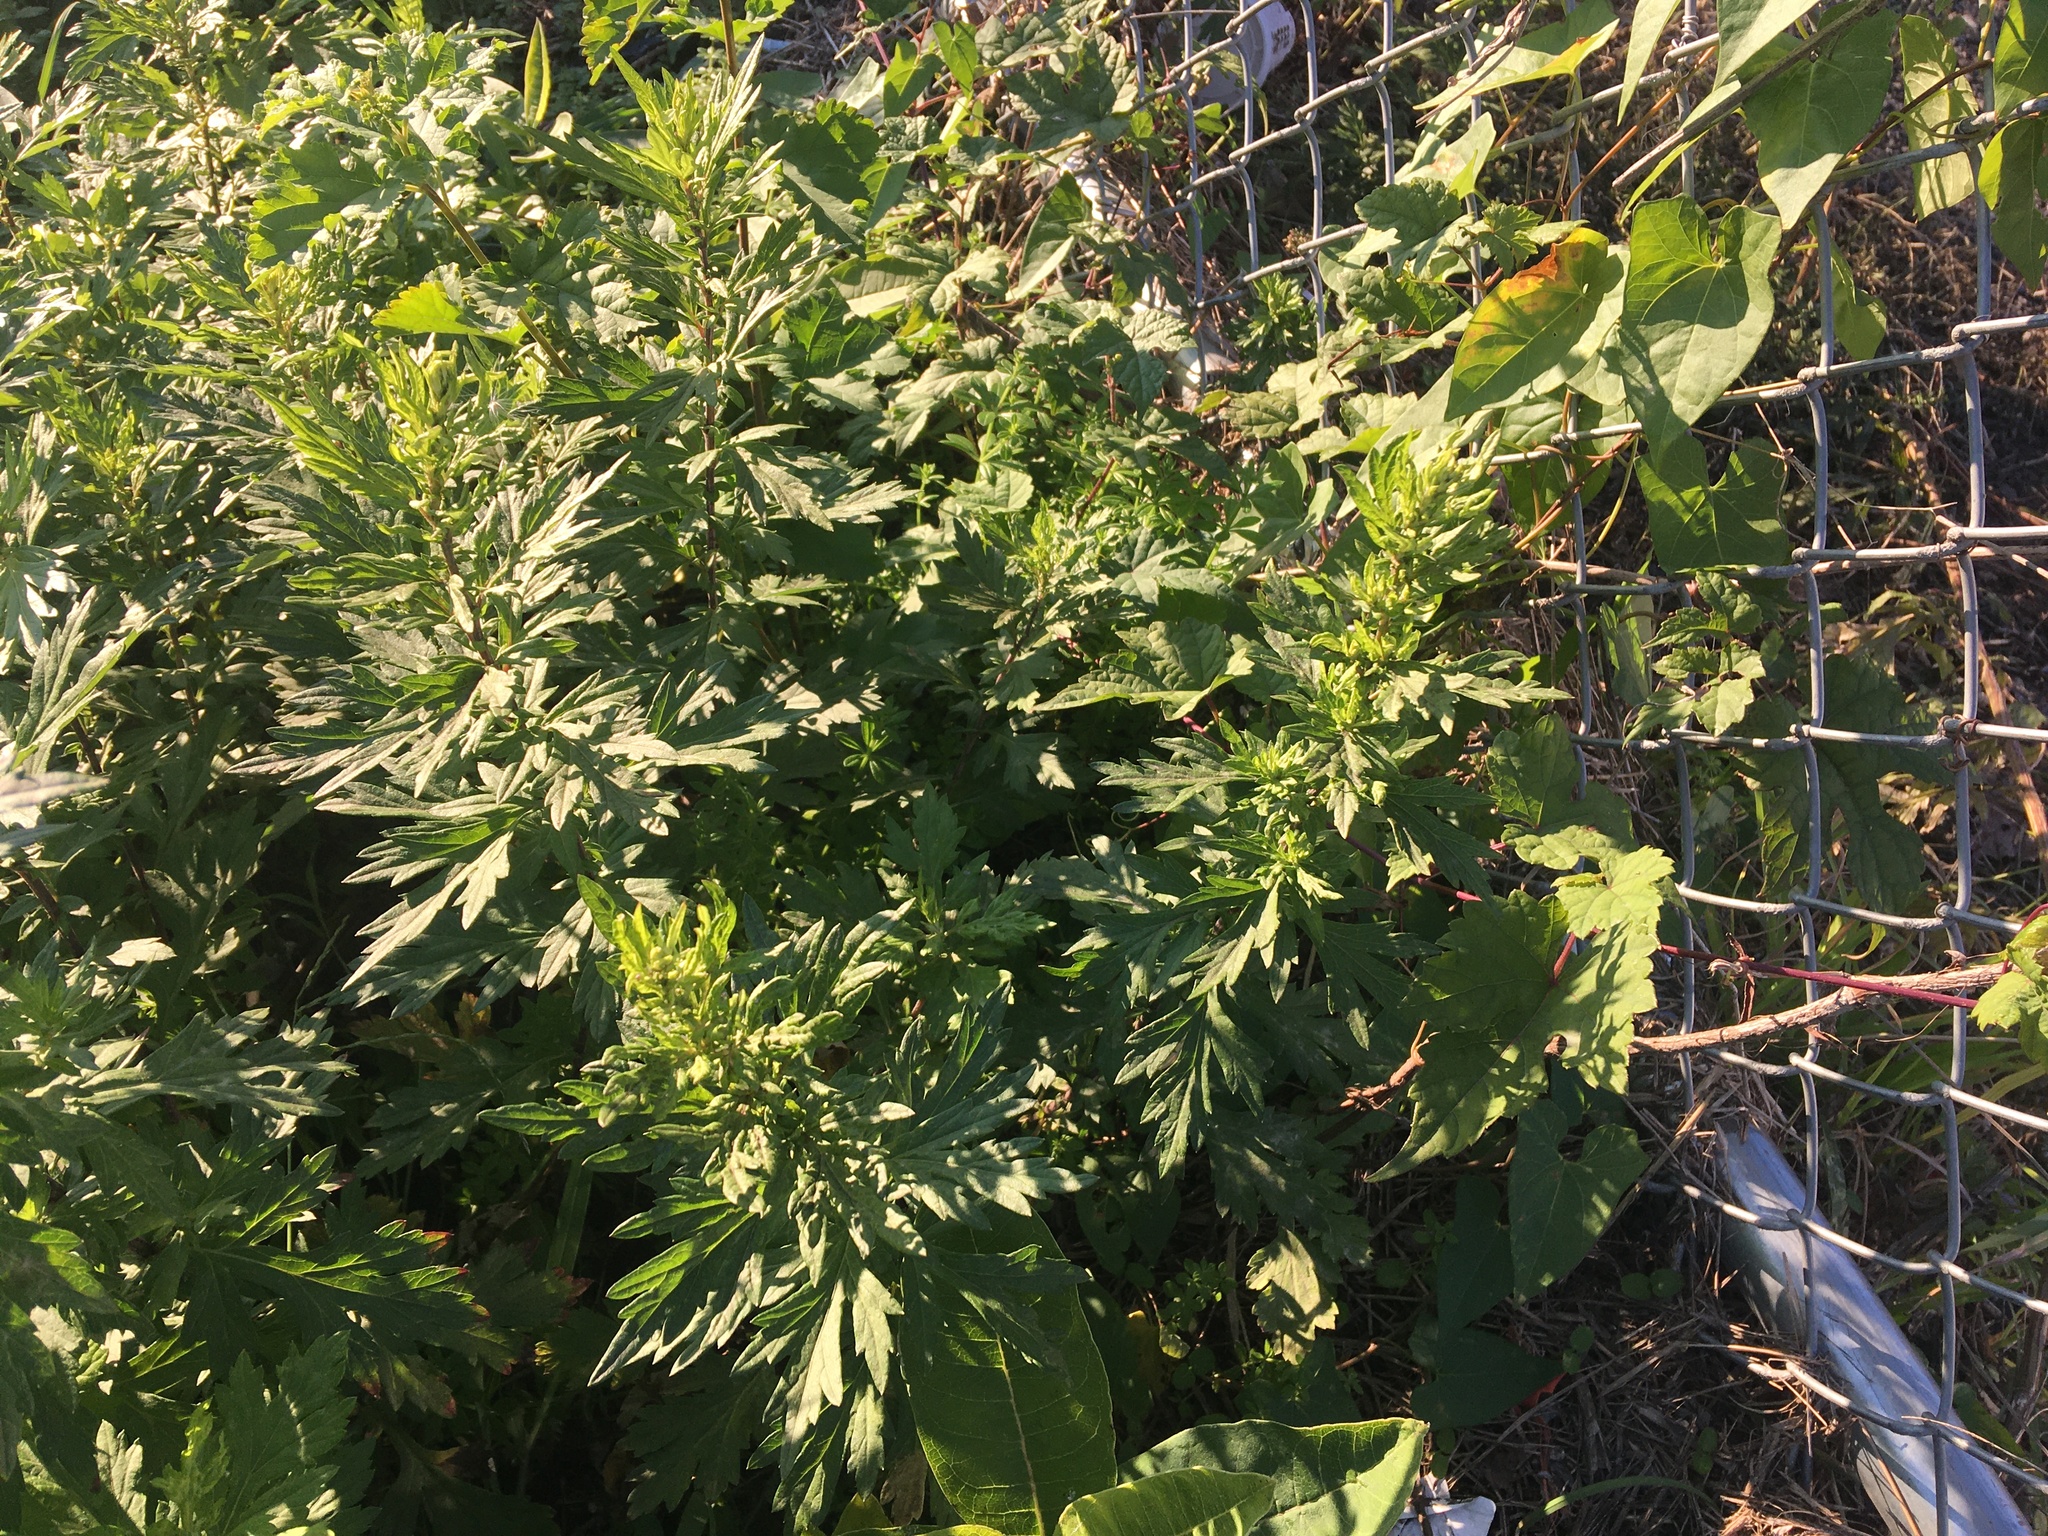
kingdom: Plantae
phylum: Tracheophyta
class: Magnoliopsida
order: Asterales
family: Asteraceae
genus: Artemisia
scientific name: Artemisia vulgaris
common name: Mugwort
